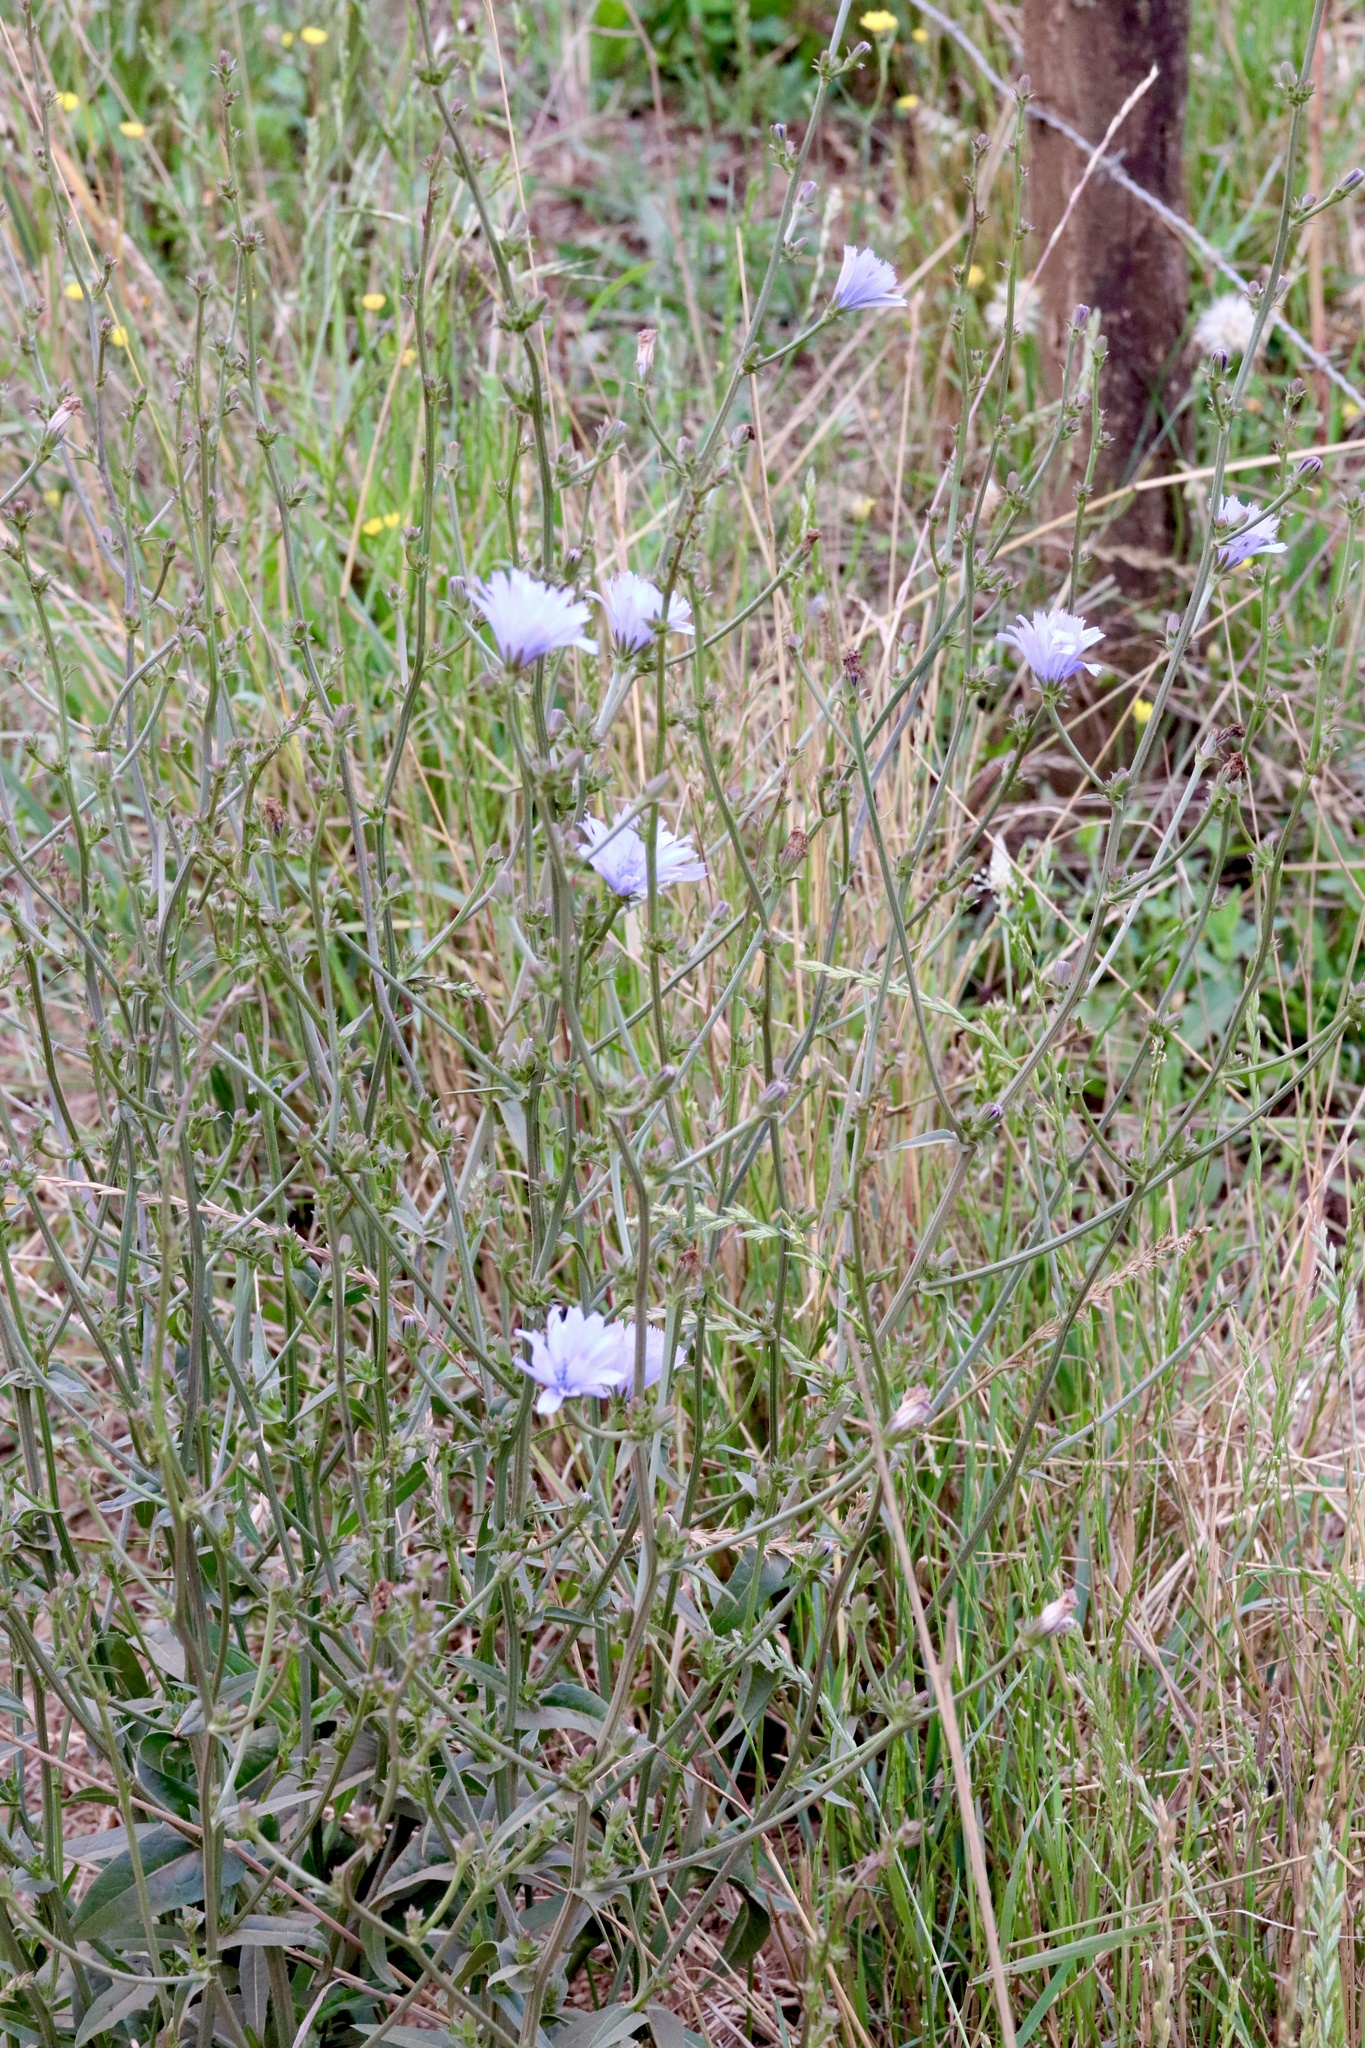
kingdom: Plantae
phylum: Tracheophyta
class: Magnoliopsida
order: Asterales
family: Asteraceae
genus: Cichorium
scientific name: Cichorium intybus
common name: Chicory
